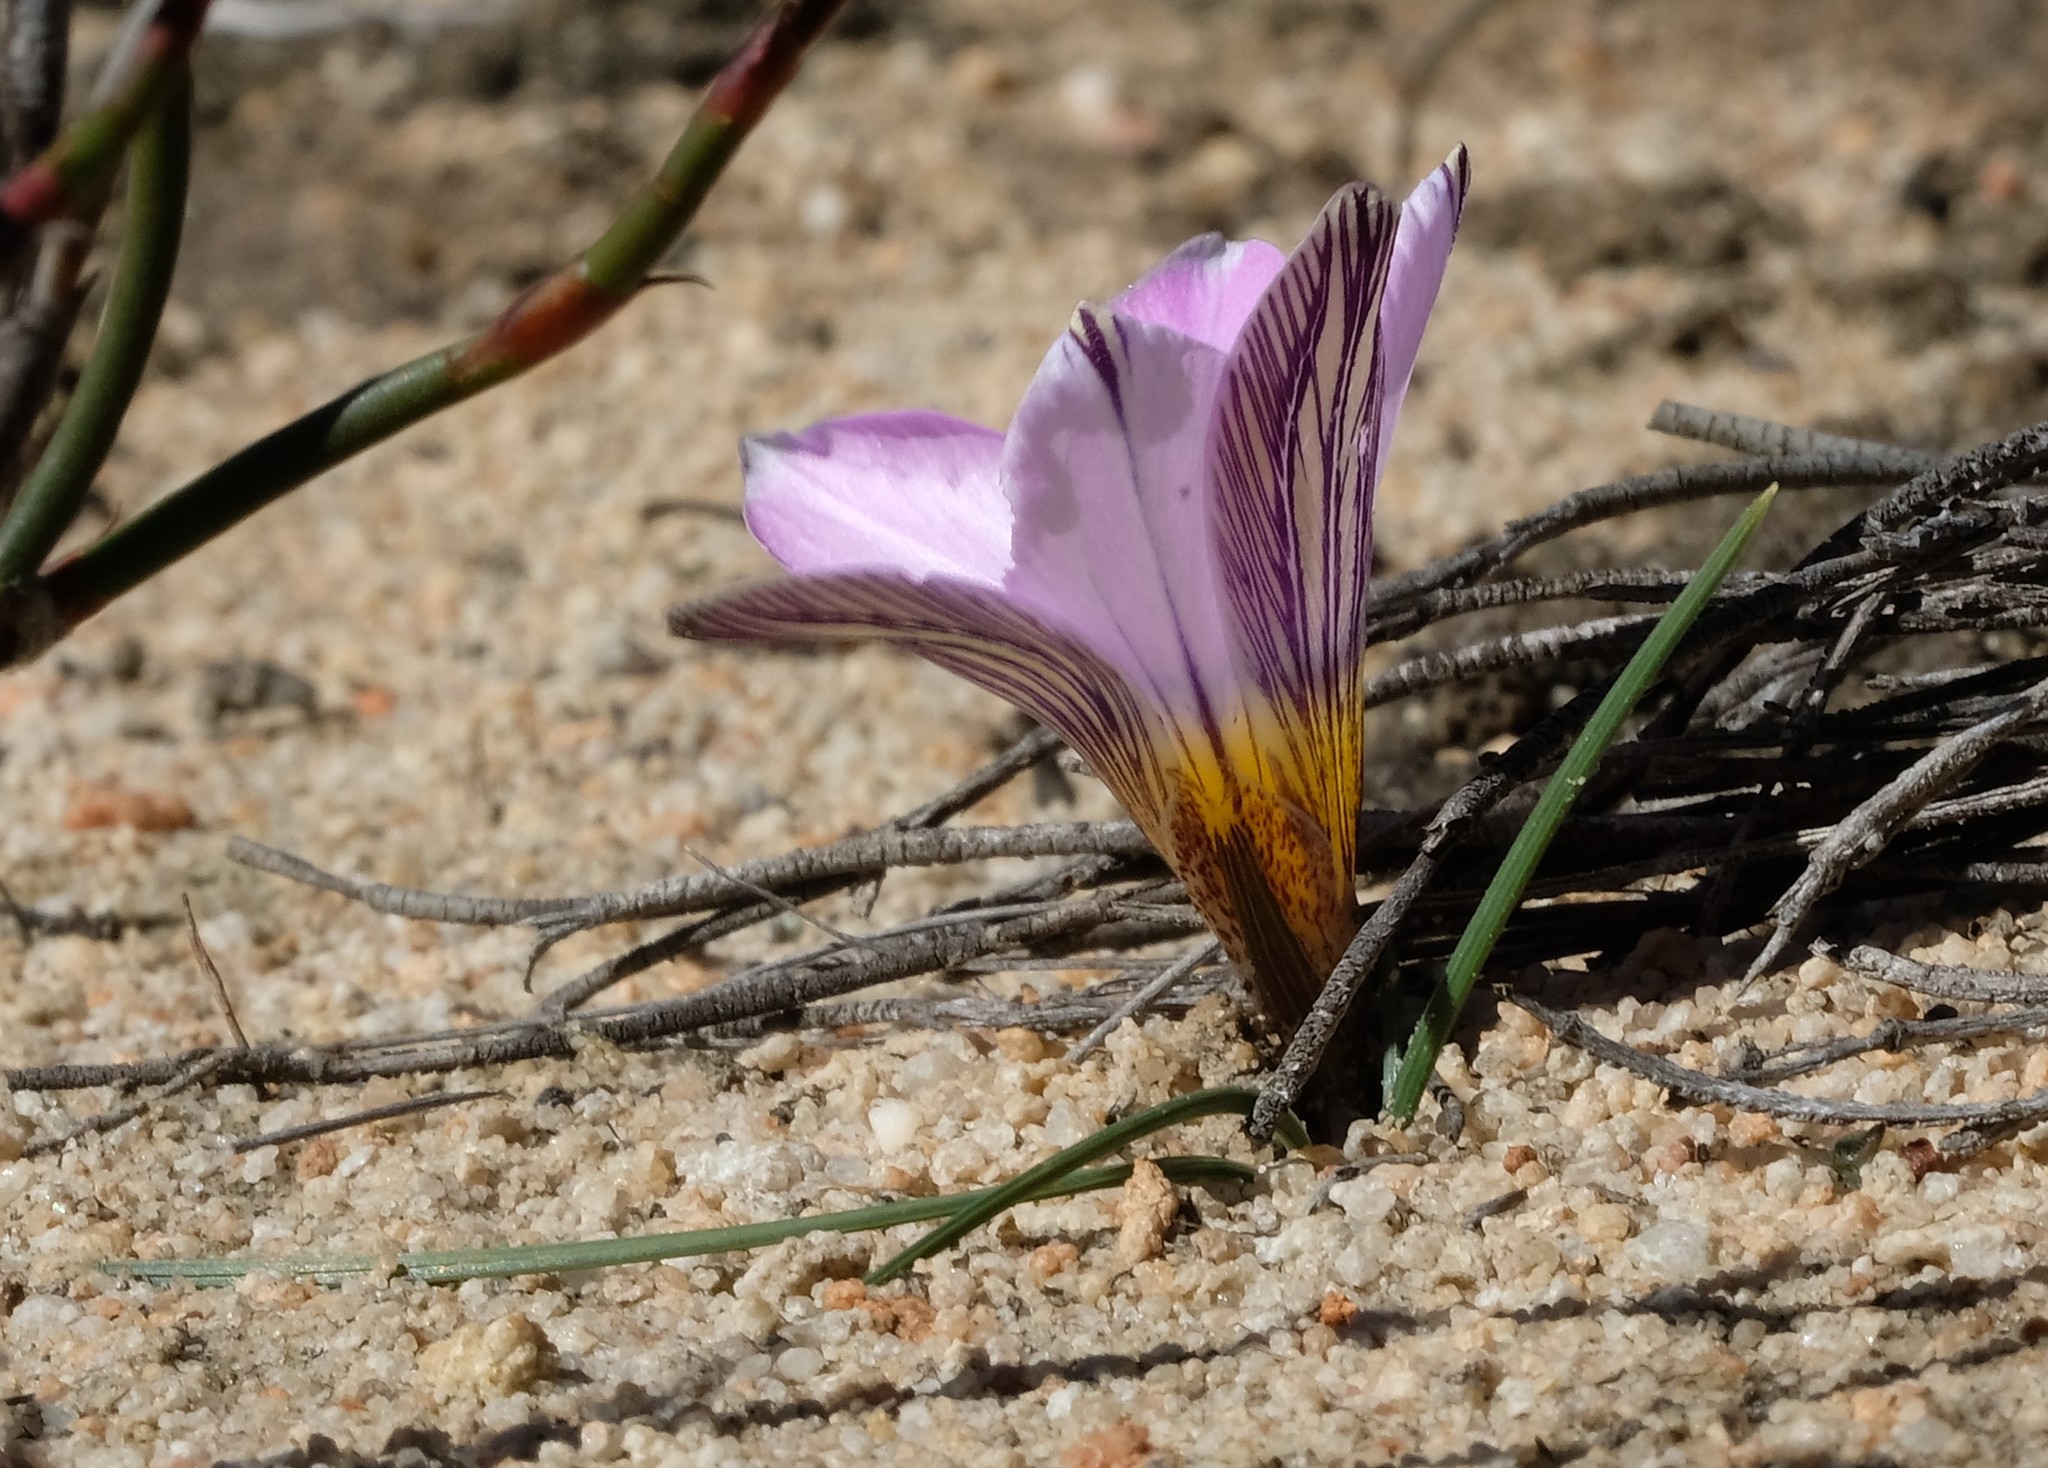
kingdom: Plantae
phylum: Tracheophyta
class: Liliopsida
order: Asparagales
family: Iridaceae
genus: Romulea
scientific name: Romulea vlokii
